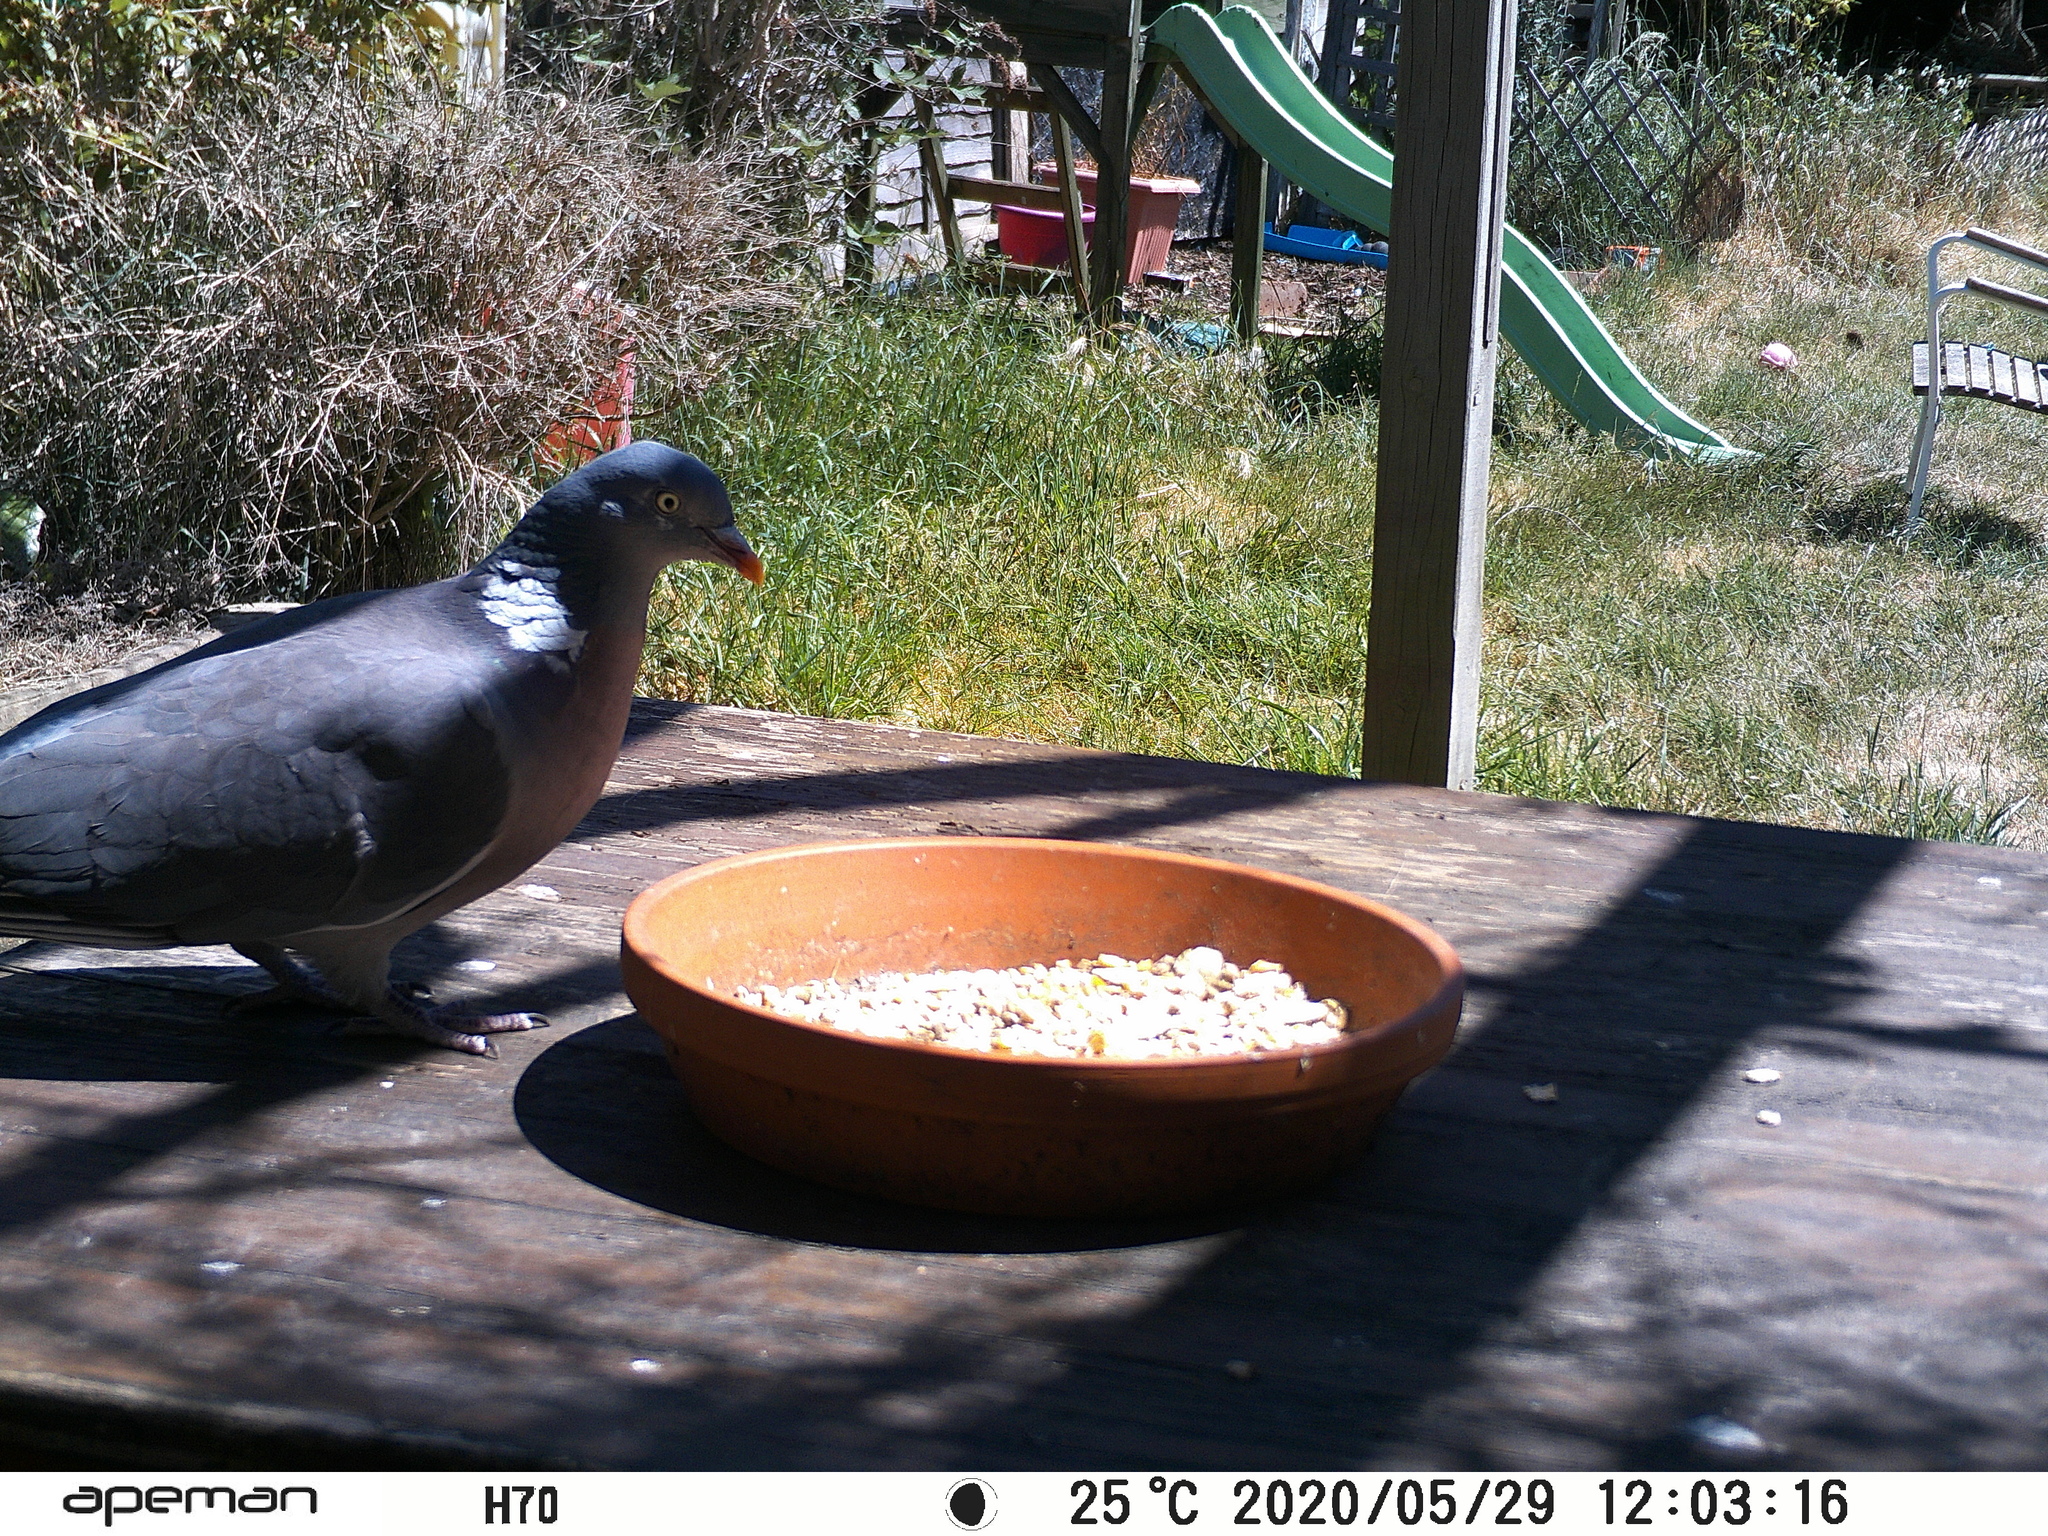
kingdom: Animalia
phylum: Chordata
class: Aves
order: Columbiformes
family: Columbidae
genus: Columba
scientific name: Columba palumbus
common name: Common wood pigeon
